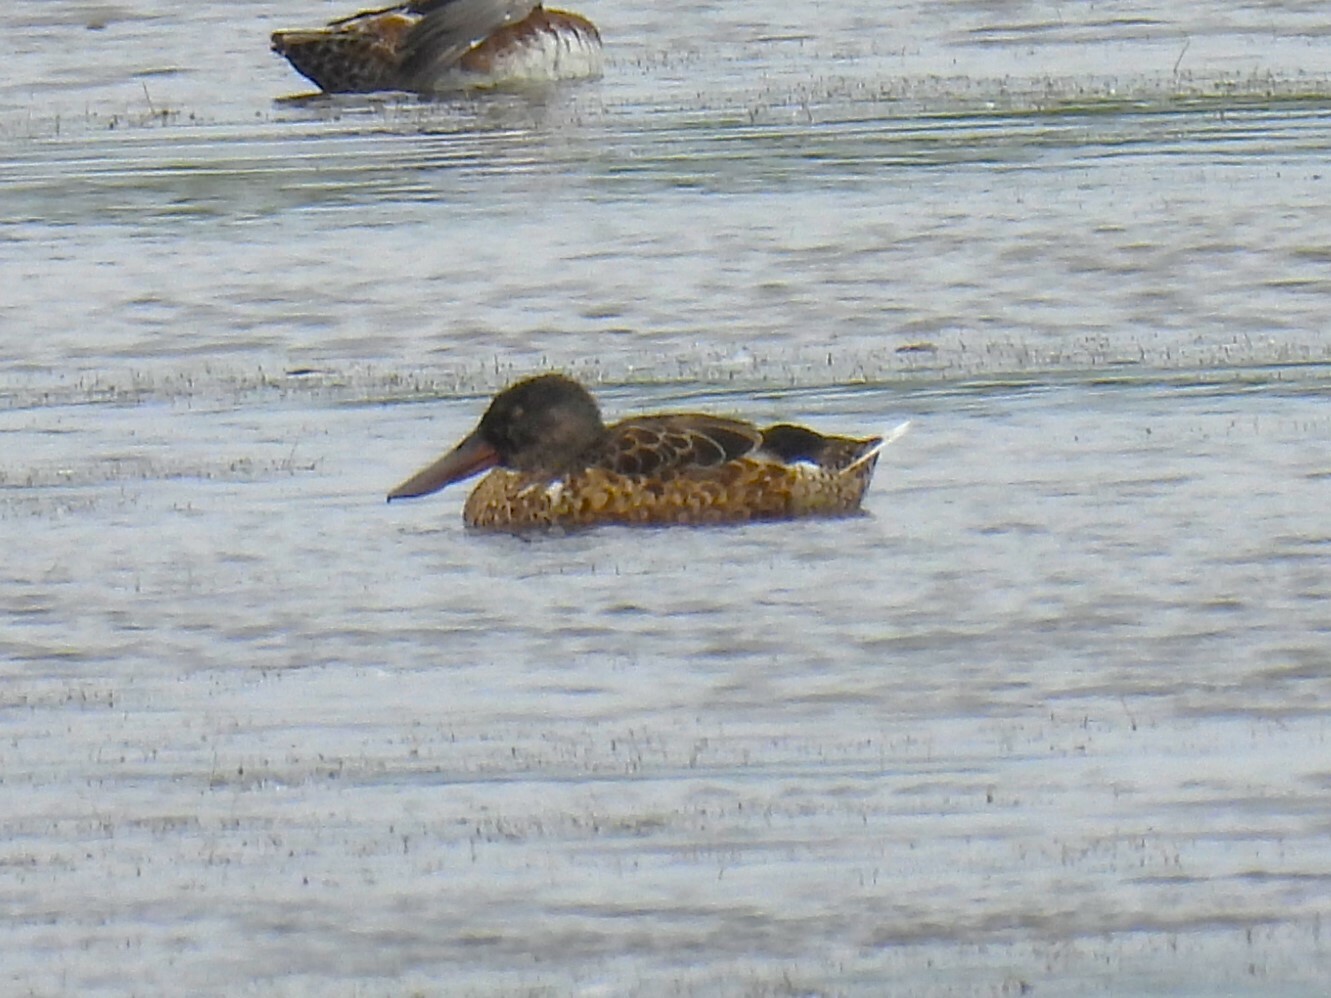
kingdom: Animalia
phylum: Chordata
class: Aves
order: Anseriformes
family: Anatidae
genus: Spatula
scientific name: Spatula clypeata
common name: Northern shoveler
